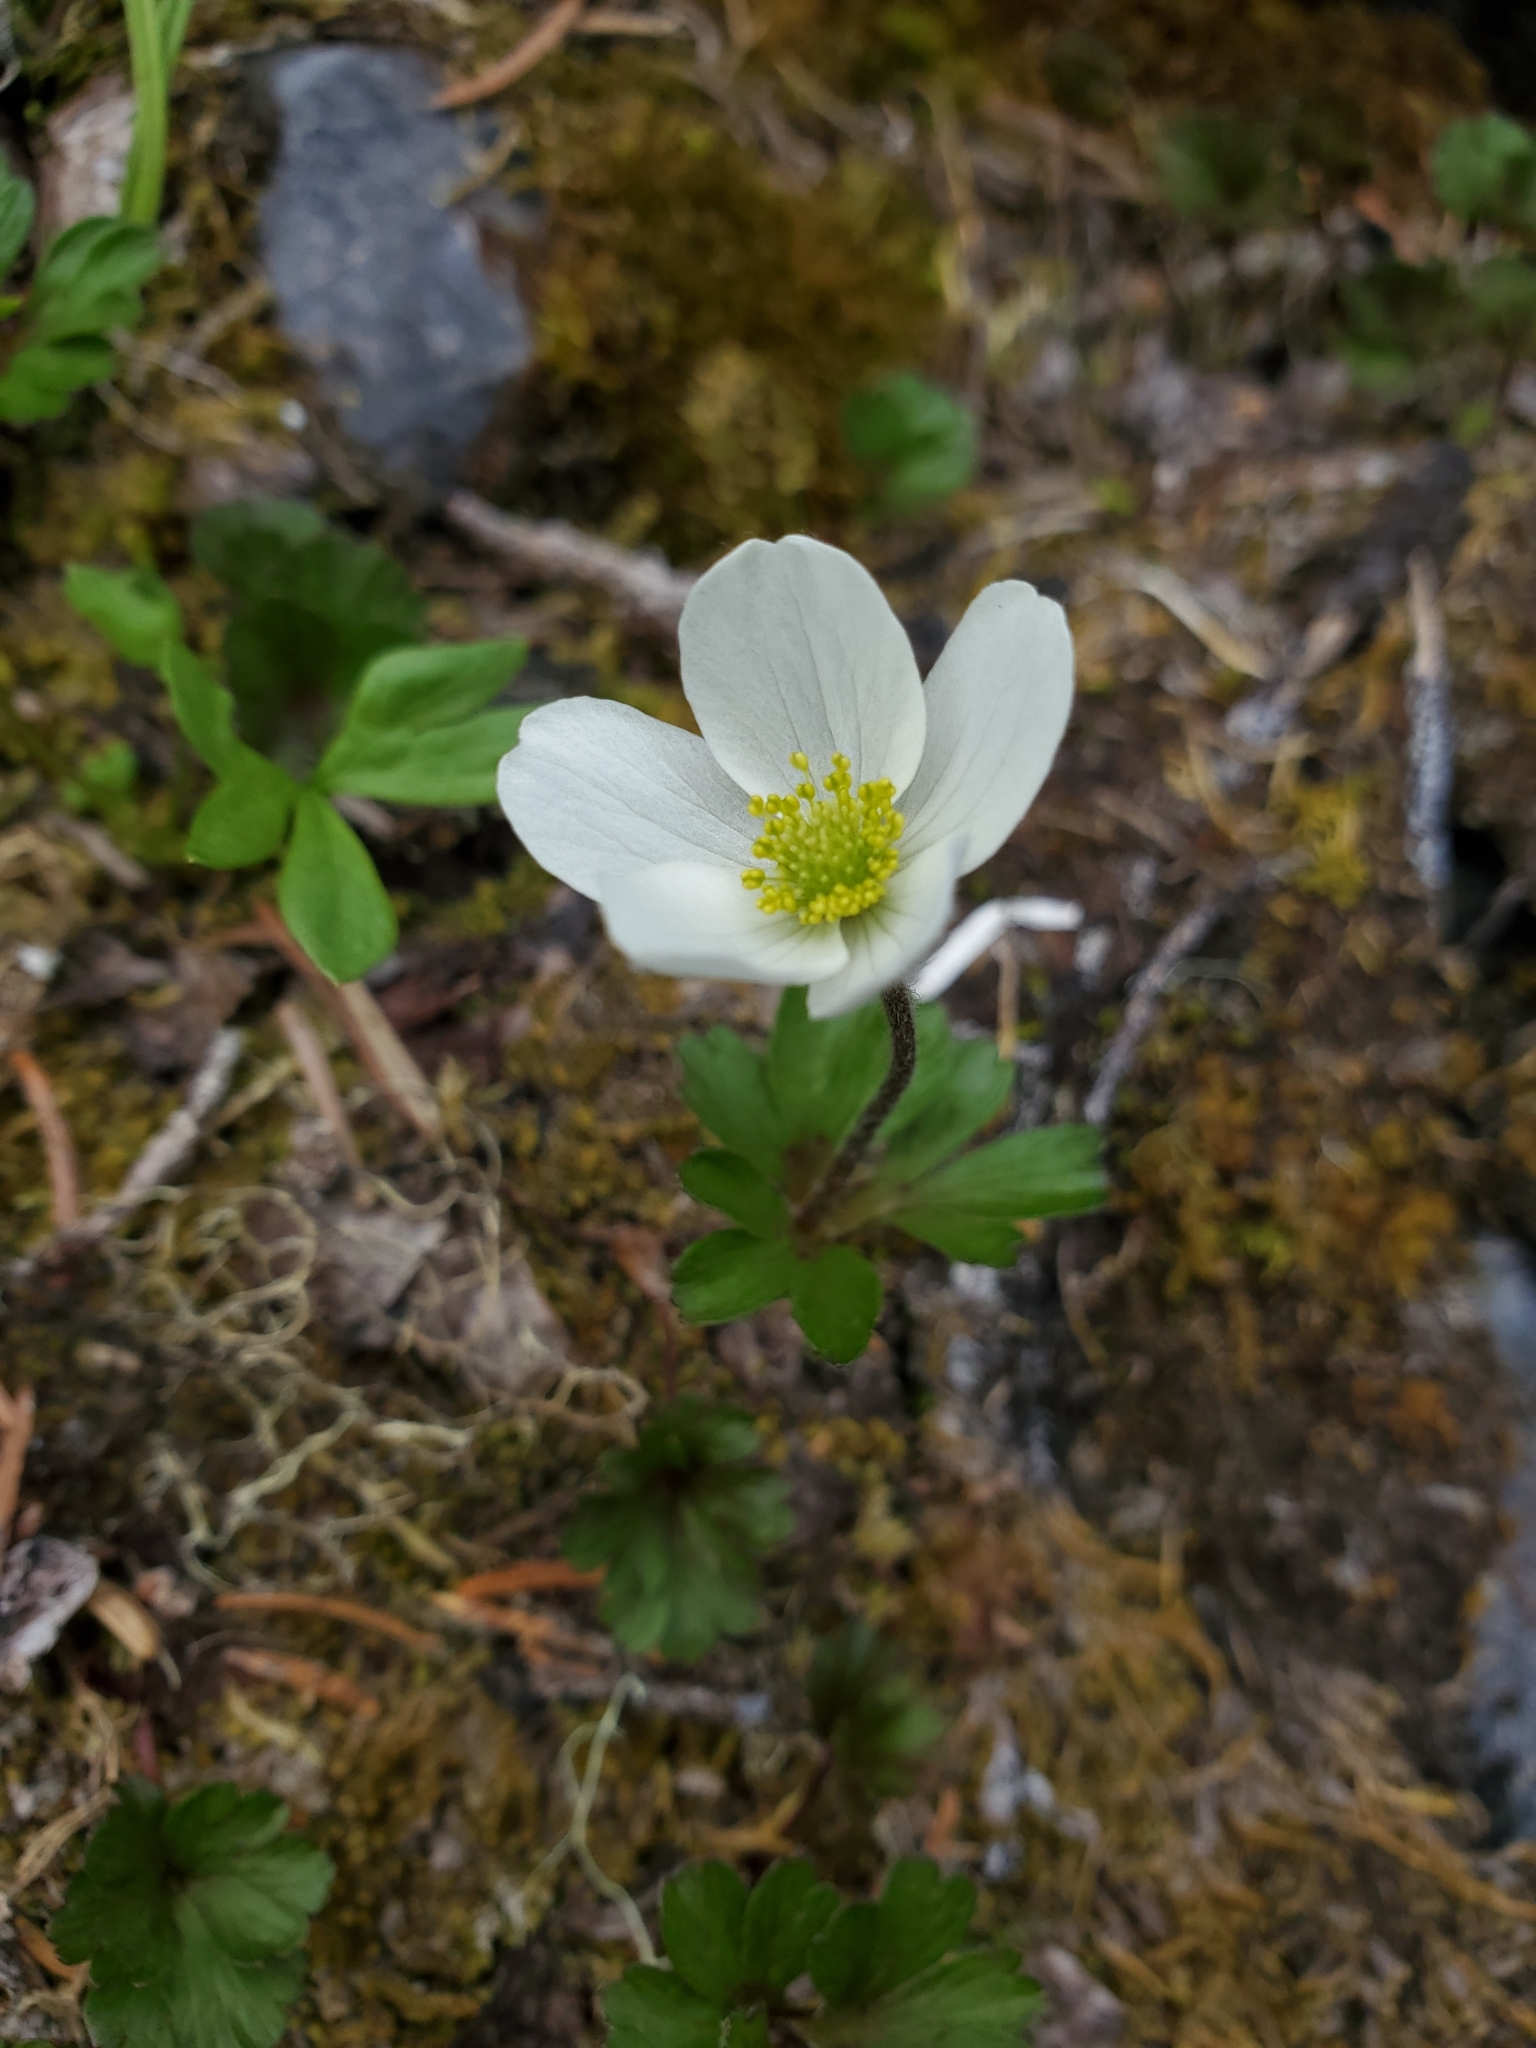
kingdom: Plantae
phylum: Tracheophyta
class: Magnoliopsida
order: Ranunculales
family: Ranunculaceae
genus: Anemone
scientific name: Anemone parviflora
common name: Northern anemone
